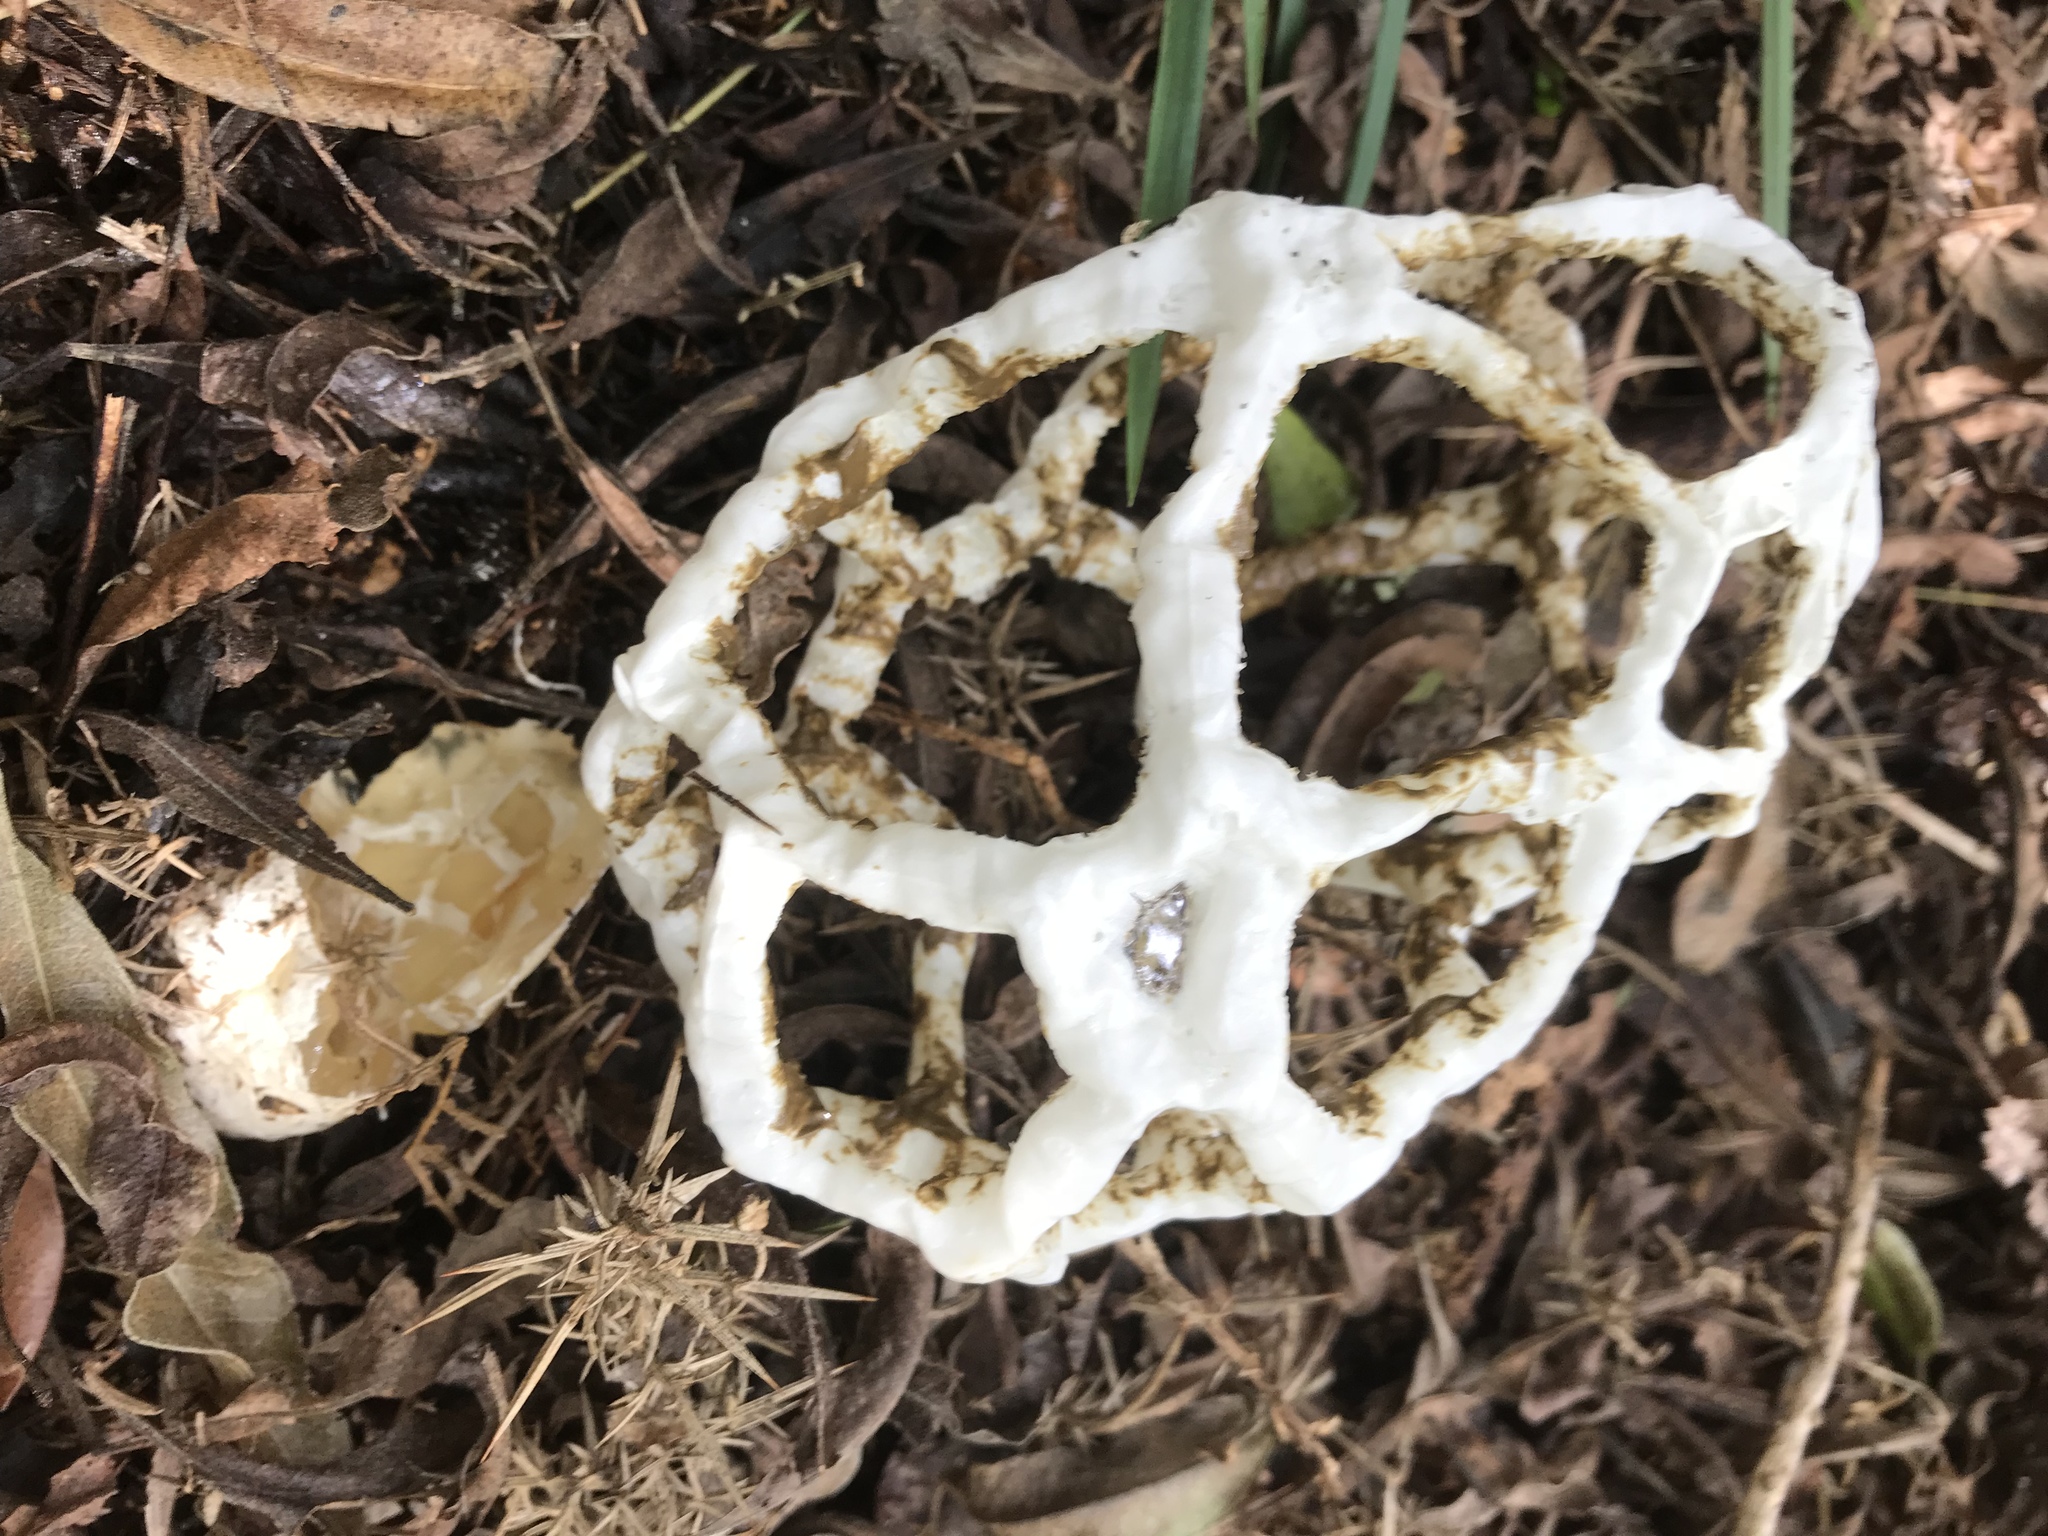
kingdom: Fungi
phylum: Basidiomycota
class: Agaricomycetes
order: Phallales
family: Phallaceae
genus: Ileodictyon
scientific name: Ileodictyon cibarium
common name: Basket fungus
